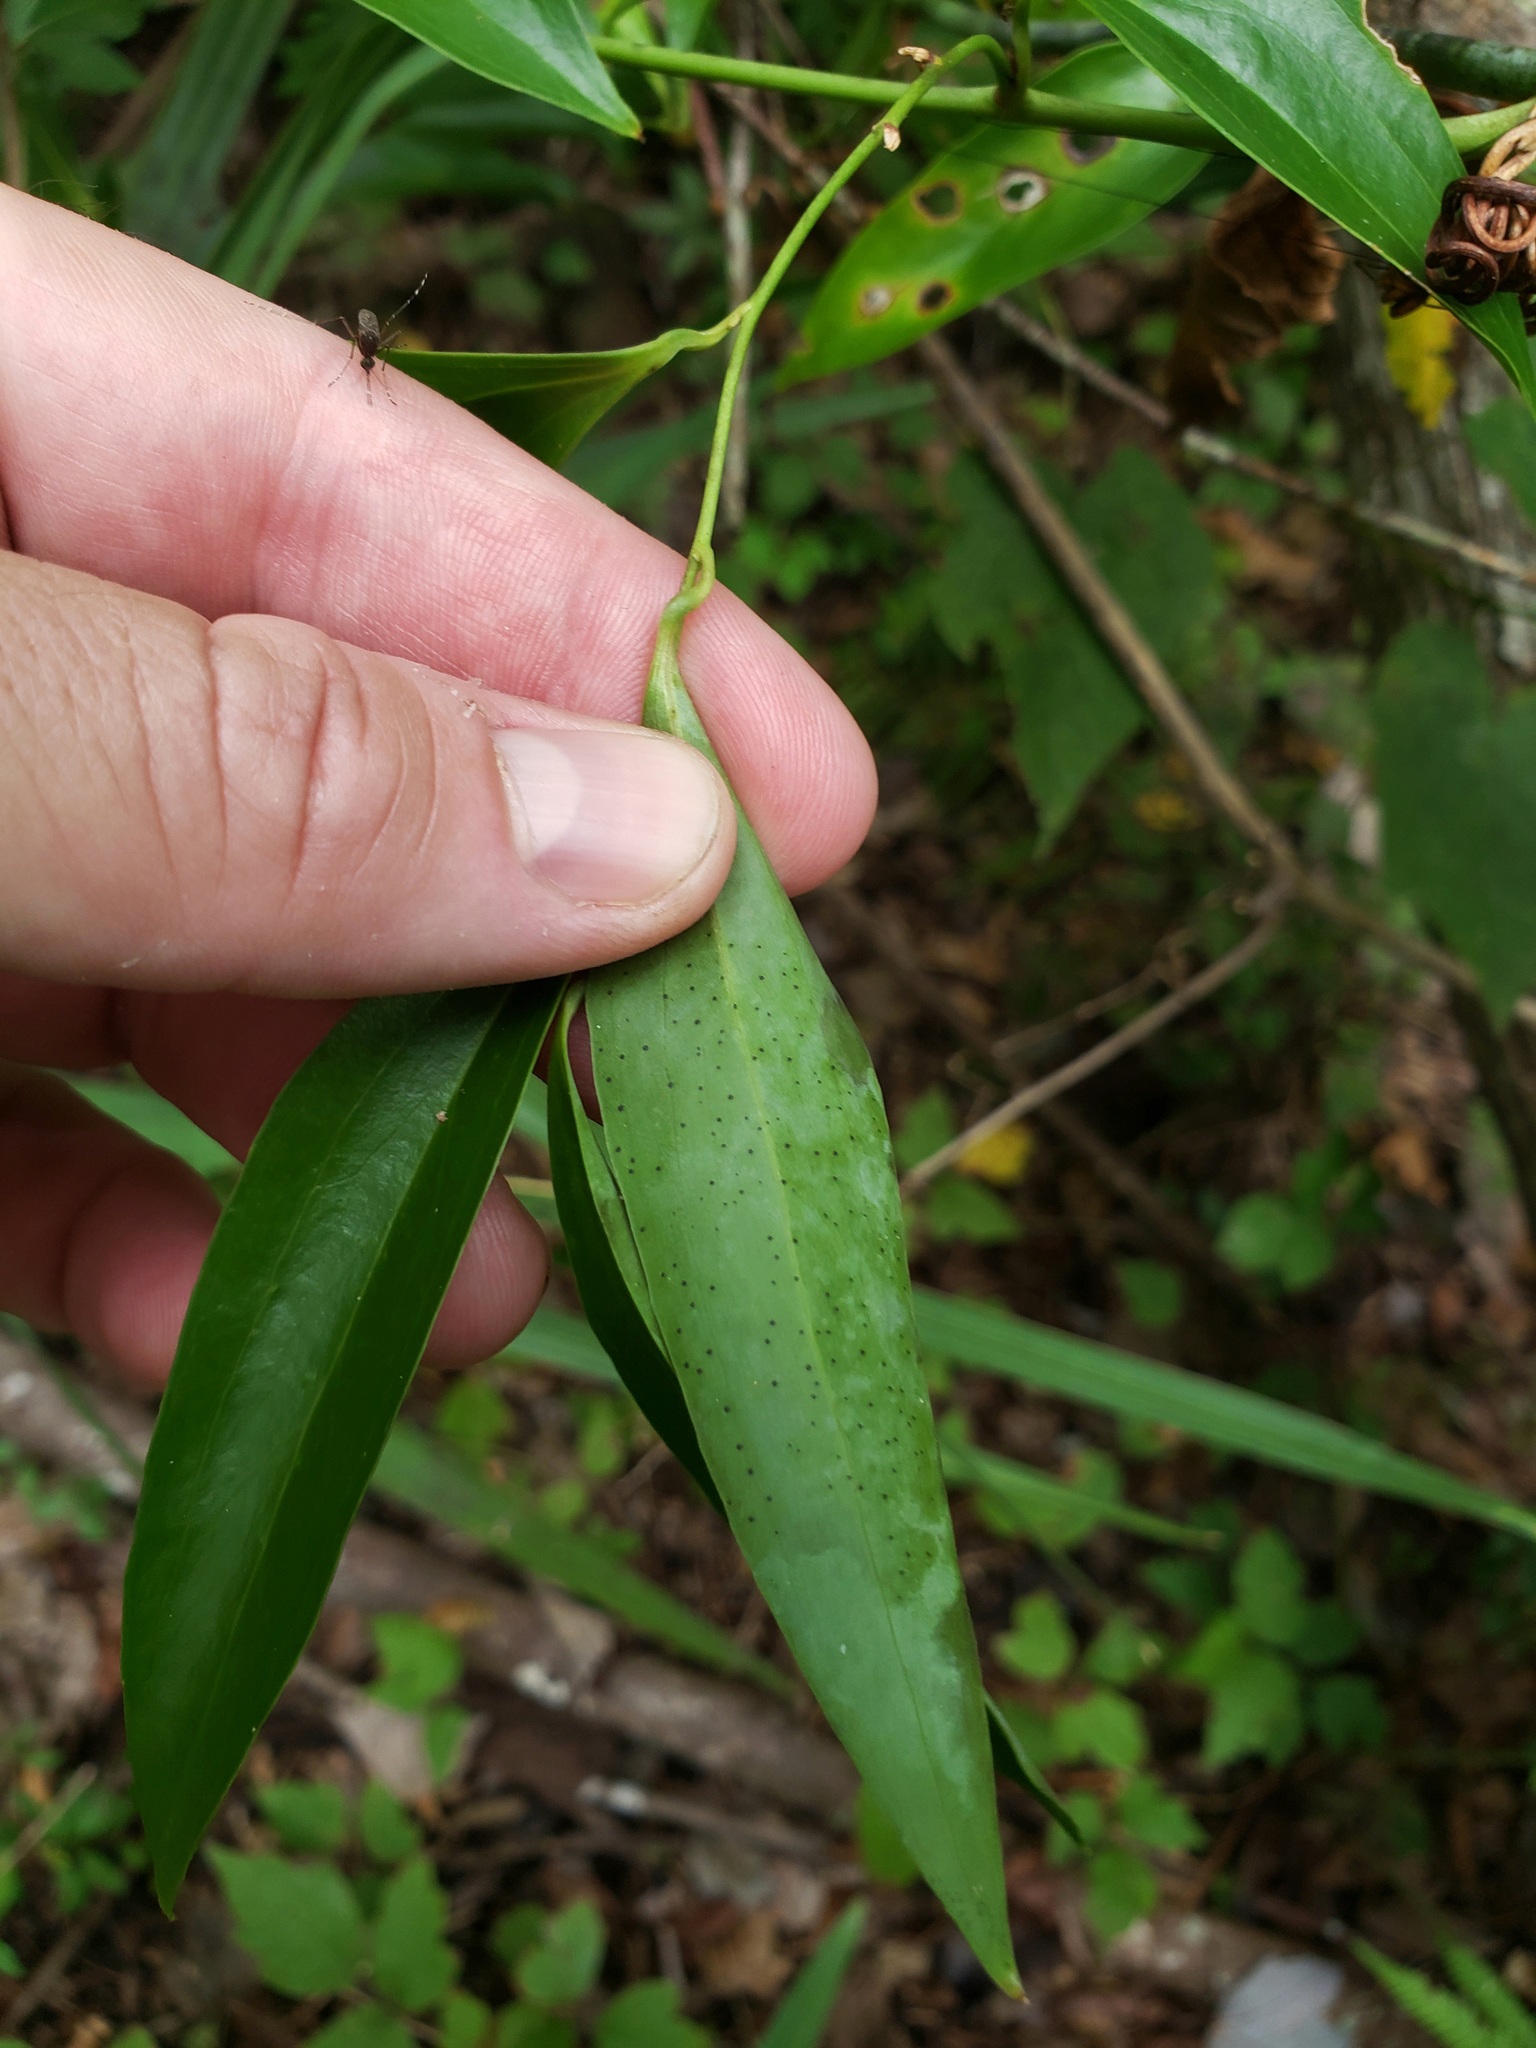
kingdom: Plantae
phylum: Tracheophyta
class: Liliopsida
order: Liliales
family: Smilacaceae
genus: Smilax
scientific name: Smilax laurifolia
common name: Bamboovine
